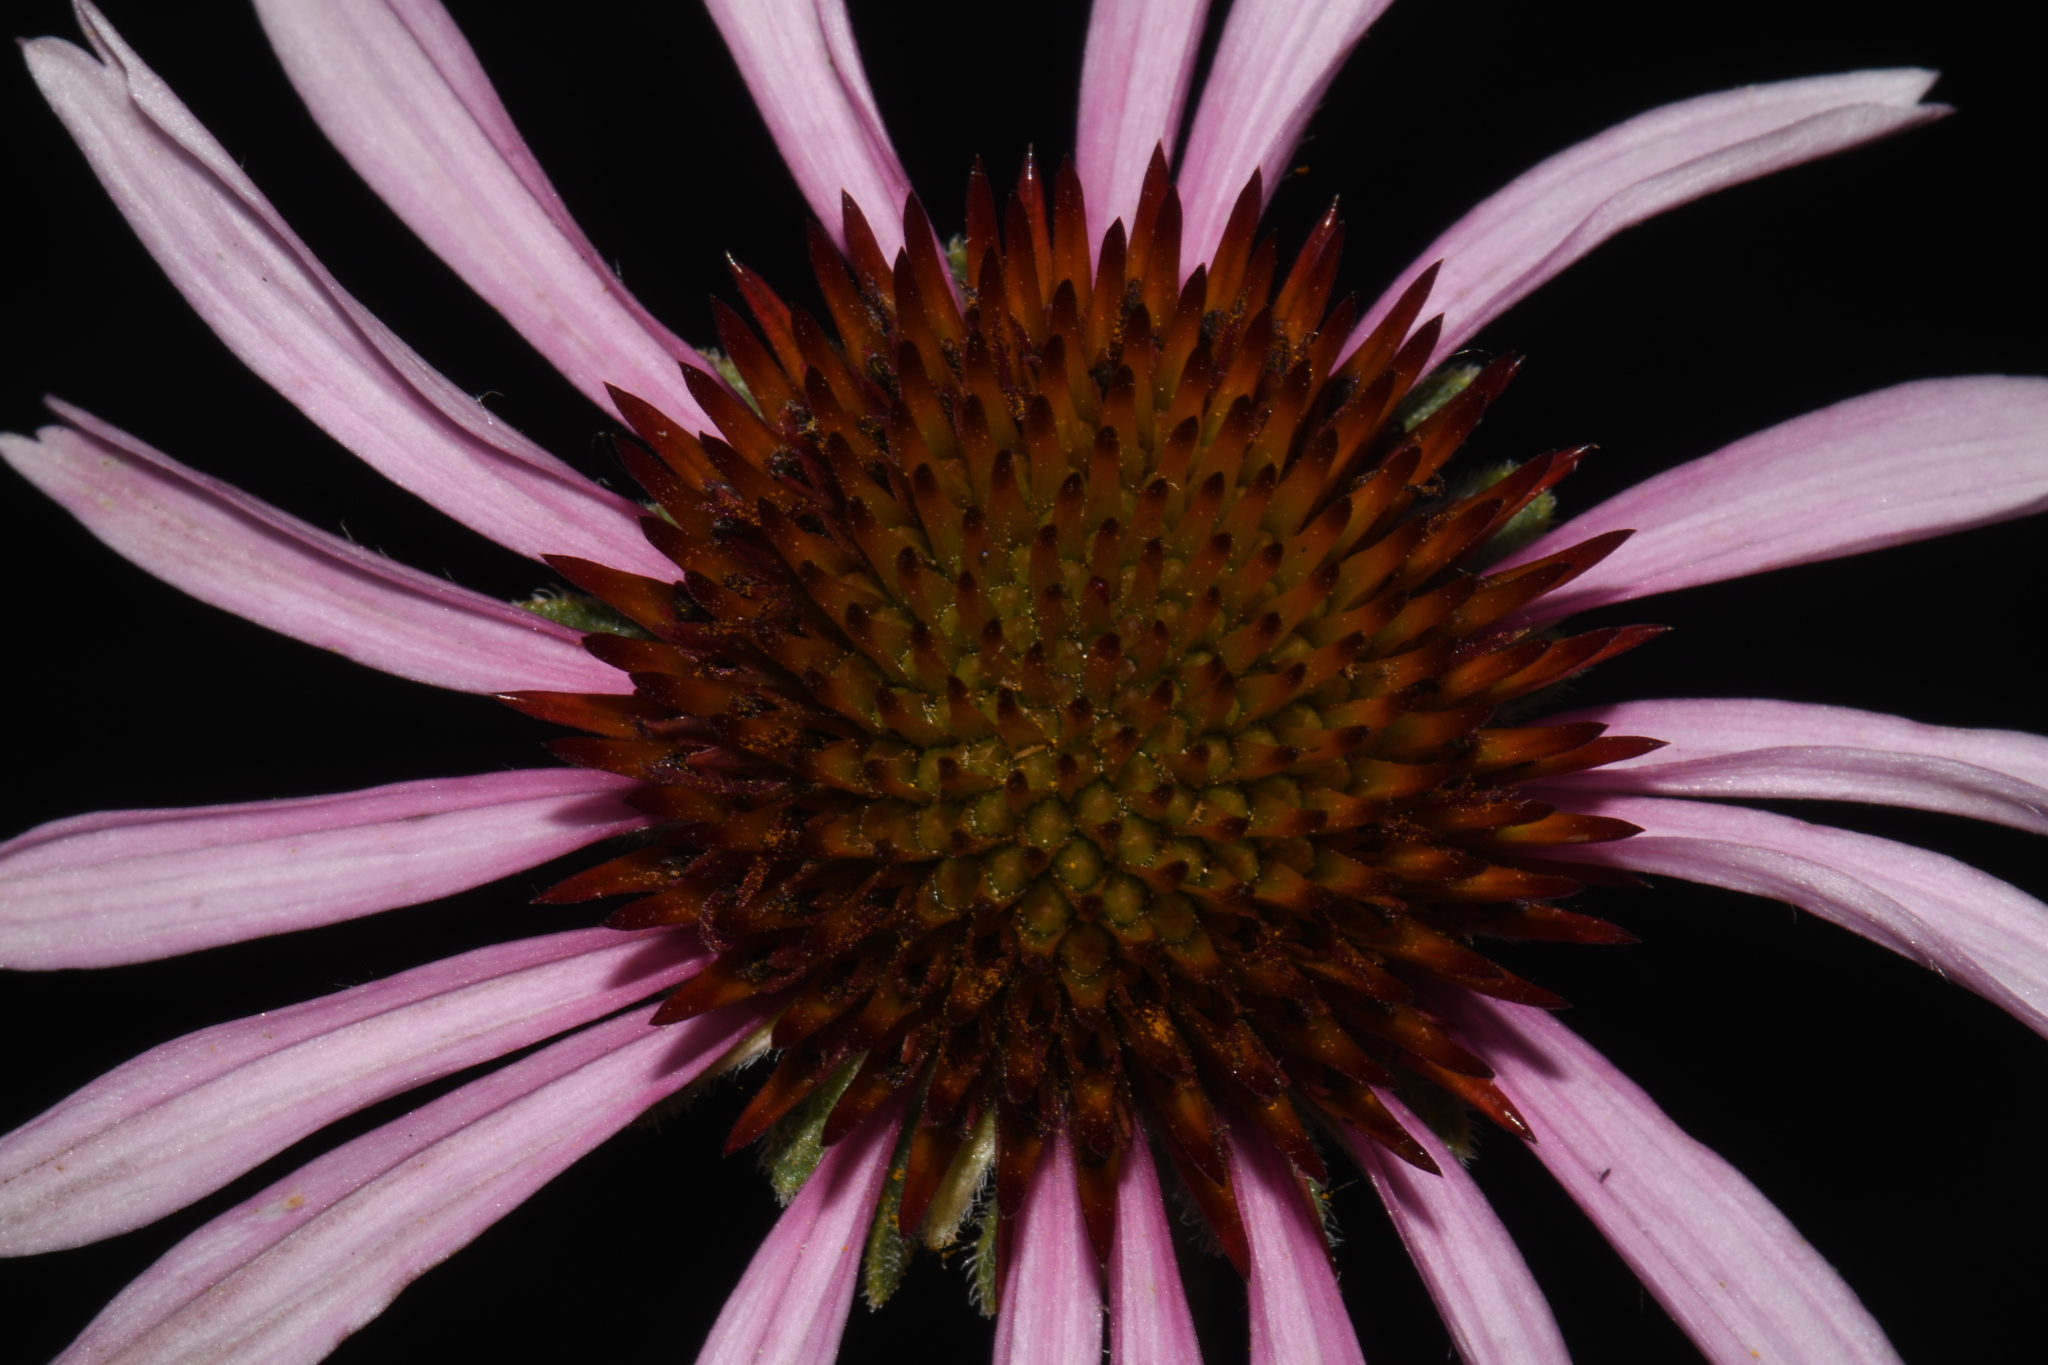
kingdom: Plantae
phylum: Tracheophyta
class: Magnoliopsida
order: Asterales
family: Asteraceae
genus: Echinacea
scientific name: Echinacea angustifolia
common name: Black-sampson echinacea
